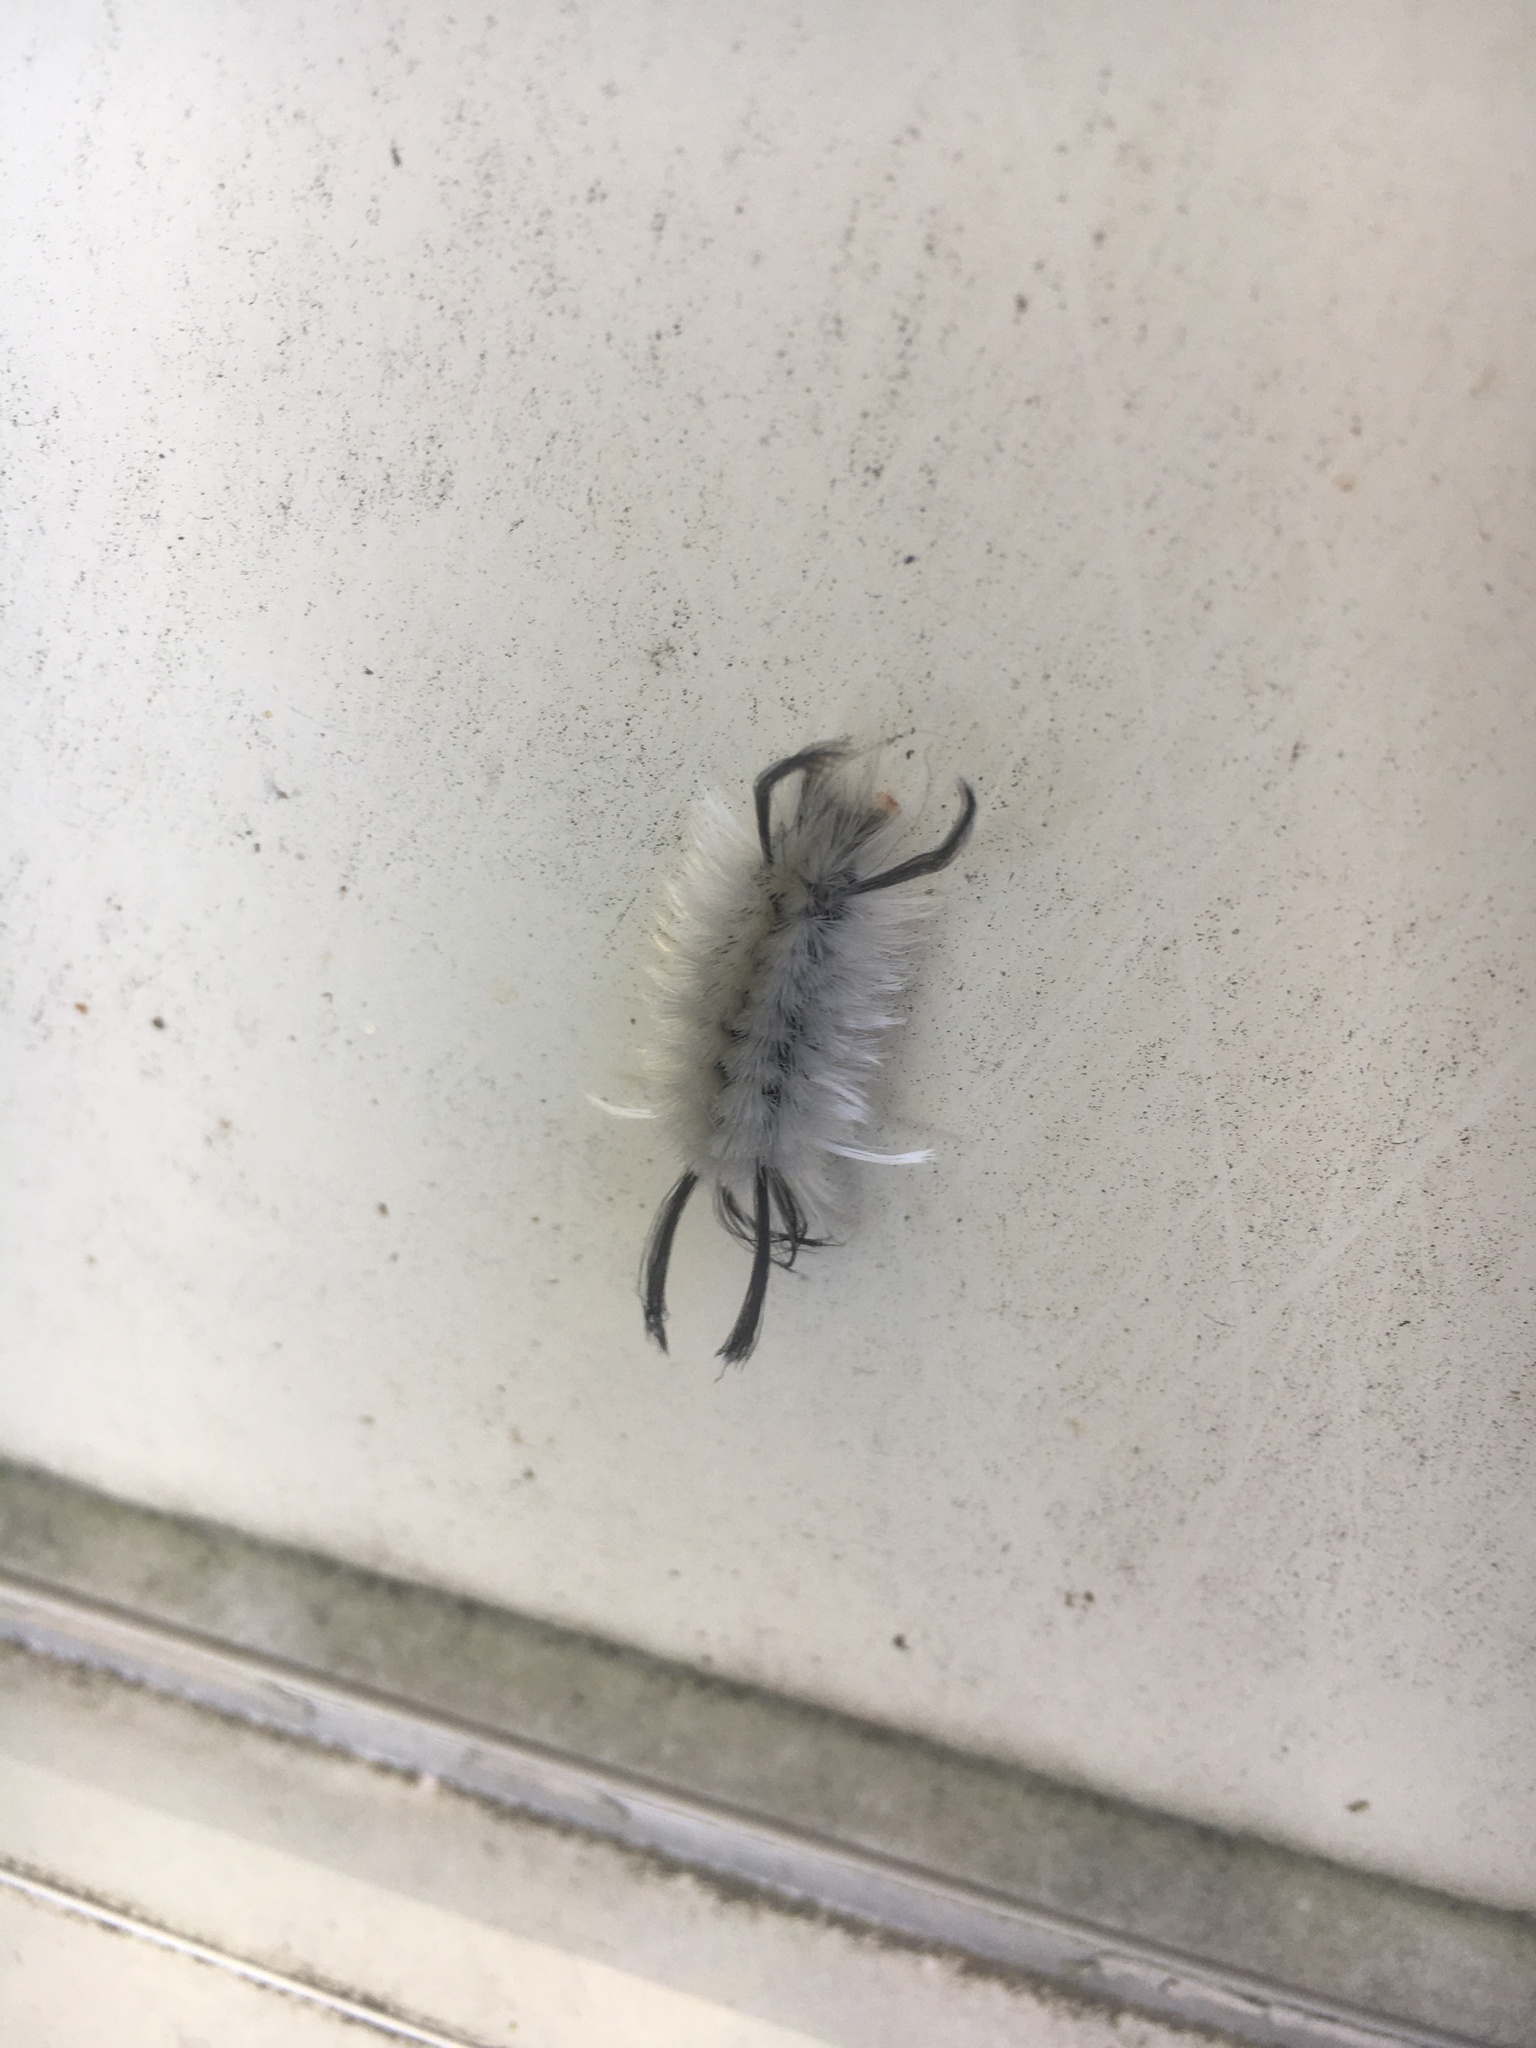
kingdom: Animalia
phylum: Arthropoda
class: Insecta
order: Lepidoptera
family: Erebidae
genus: Halysidota
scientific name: Halysidota tessellaris
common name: Banded tussock moth
